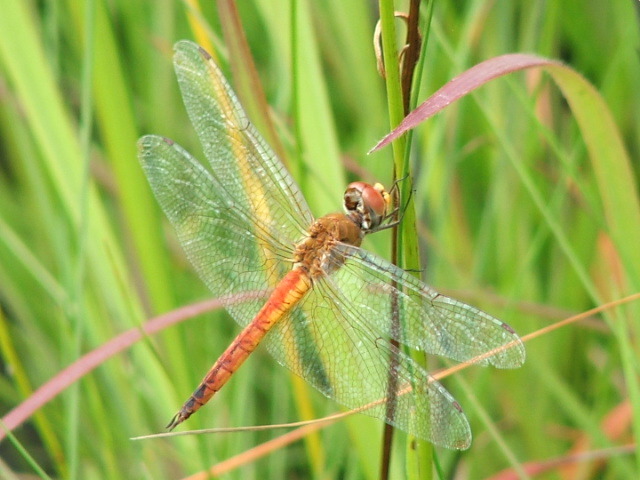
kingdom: Animalia
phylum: Arthropoda
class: Insecta
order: Odonata
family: Libellulidae
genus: Pantala
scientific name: Pantala flavescens
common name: Wandering glider
